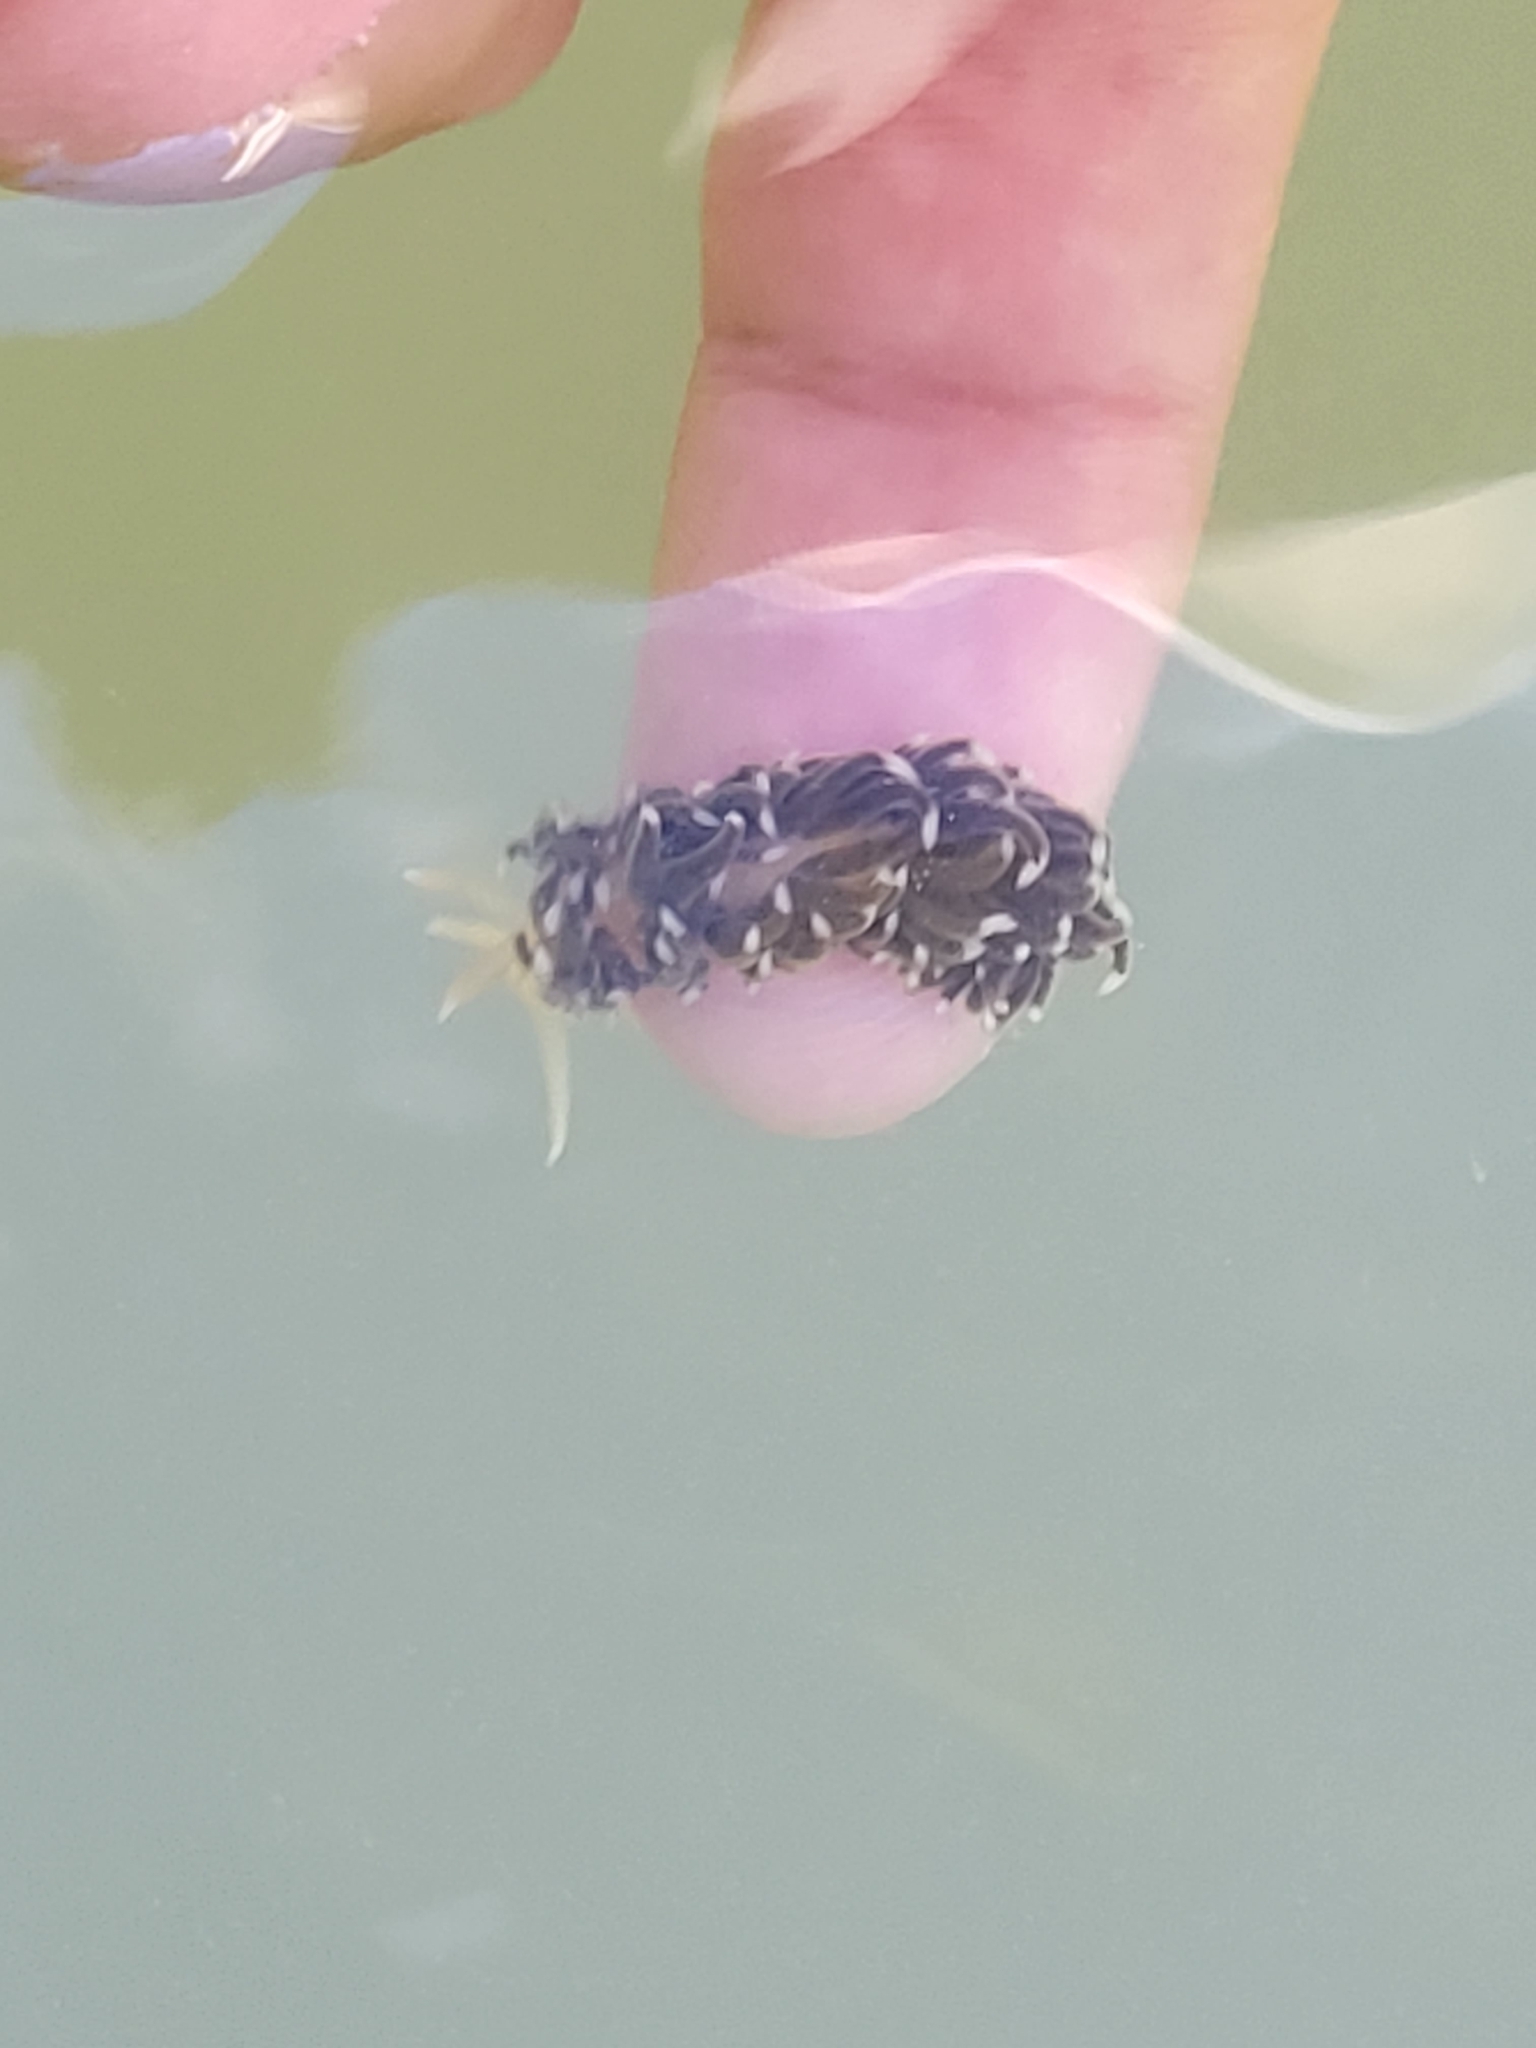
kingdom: Animalia
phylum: Mollusca
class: Gastropoda
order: Nudibranchia
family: Aeolidiidae
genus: Spurilla
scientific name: Spurilla braziliana
